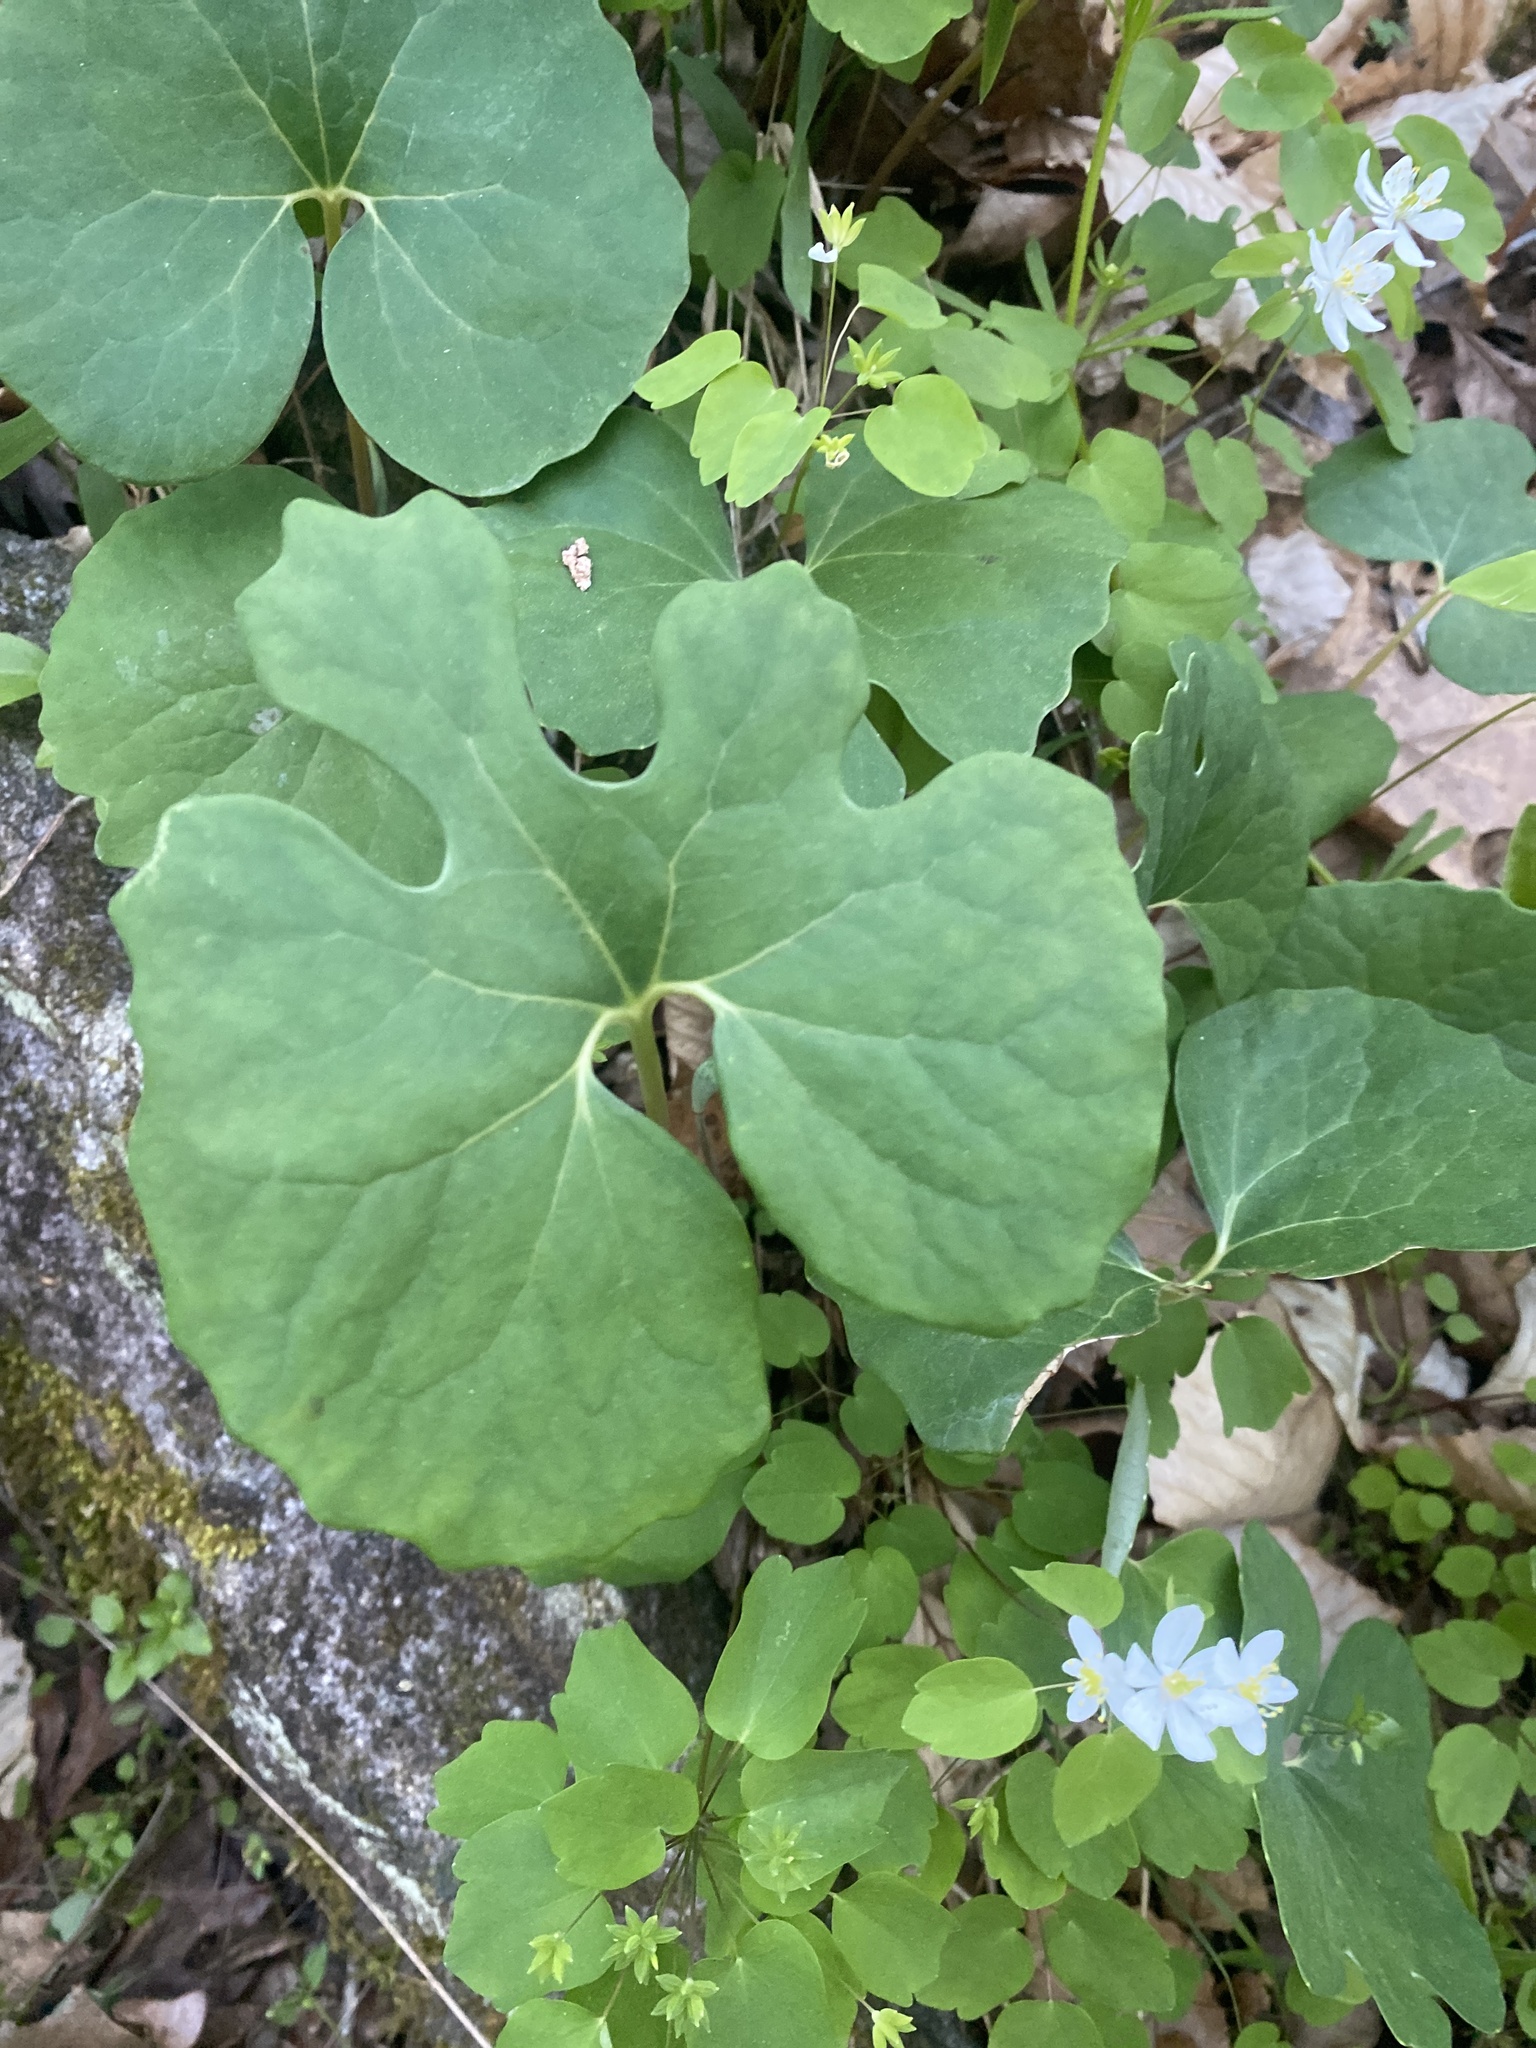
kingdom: Plantae
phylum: Tracheophyta
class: Magnoliopsida
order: Ranunculales
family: Papaveraceae
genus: Sanguinaria
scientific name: Sanguinaria canadensis
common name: Bloodroot
